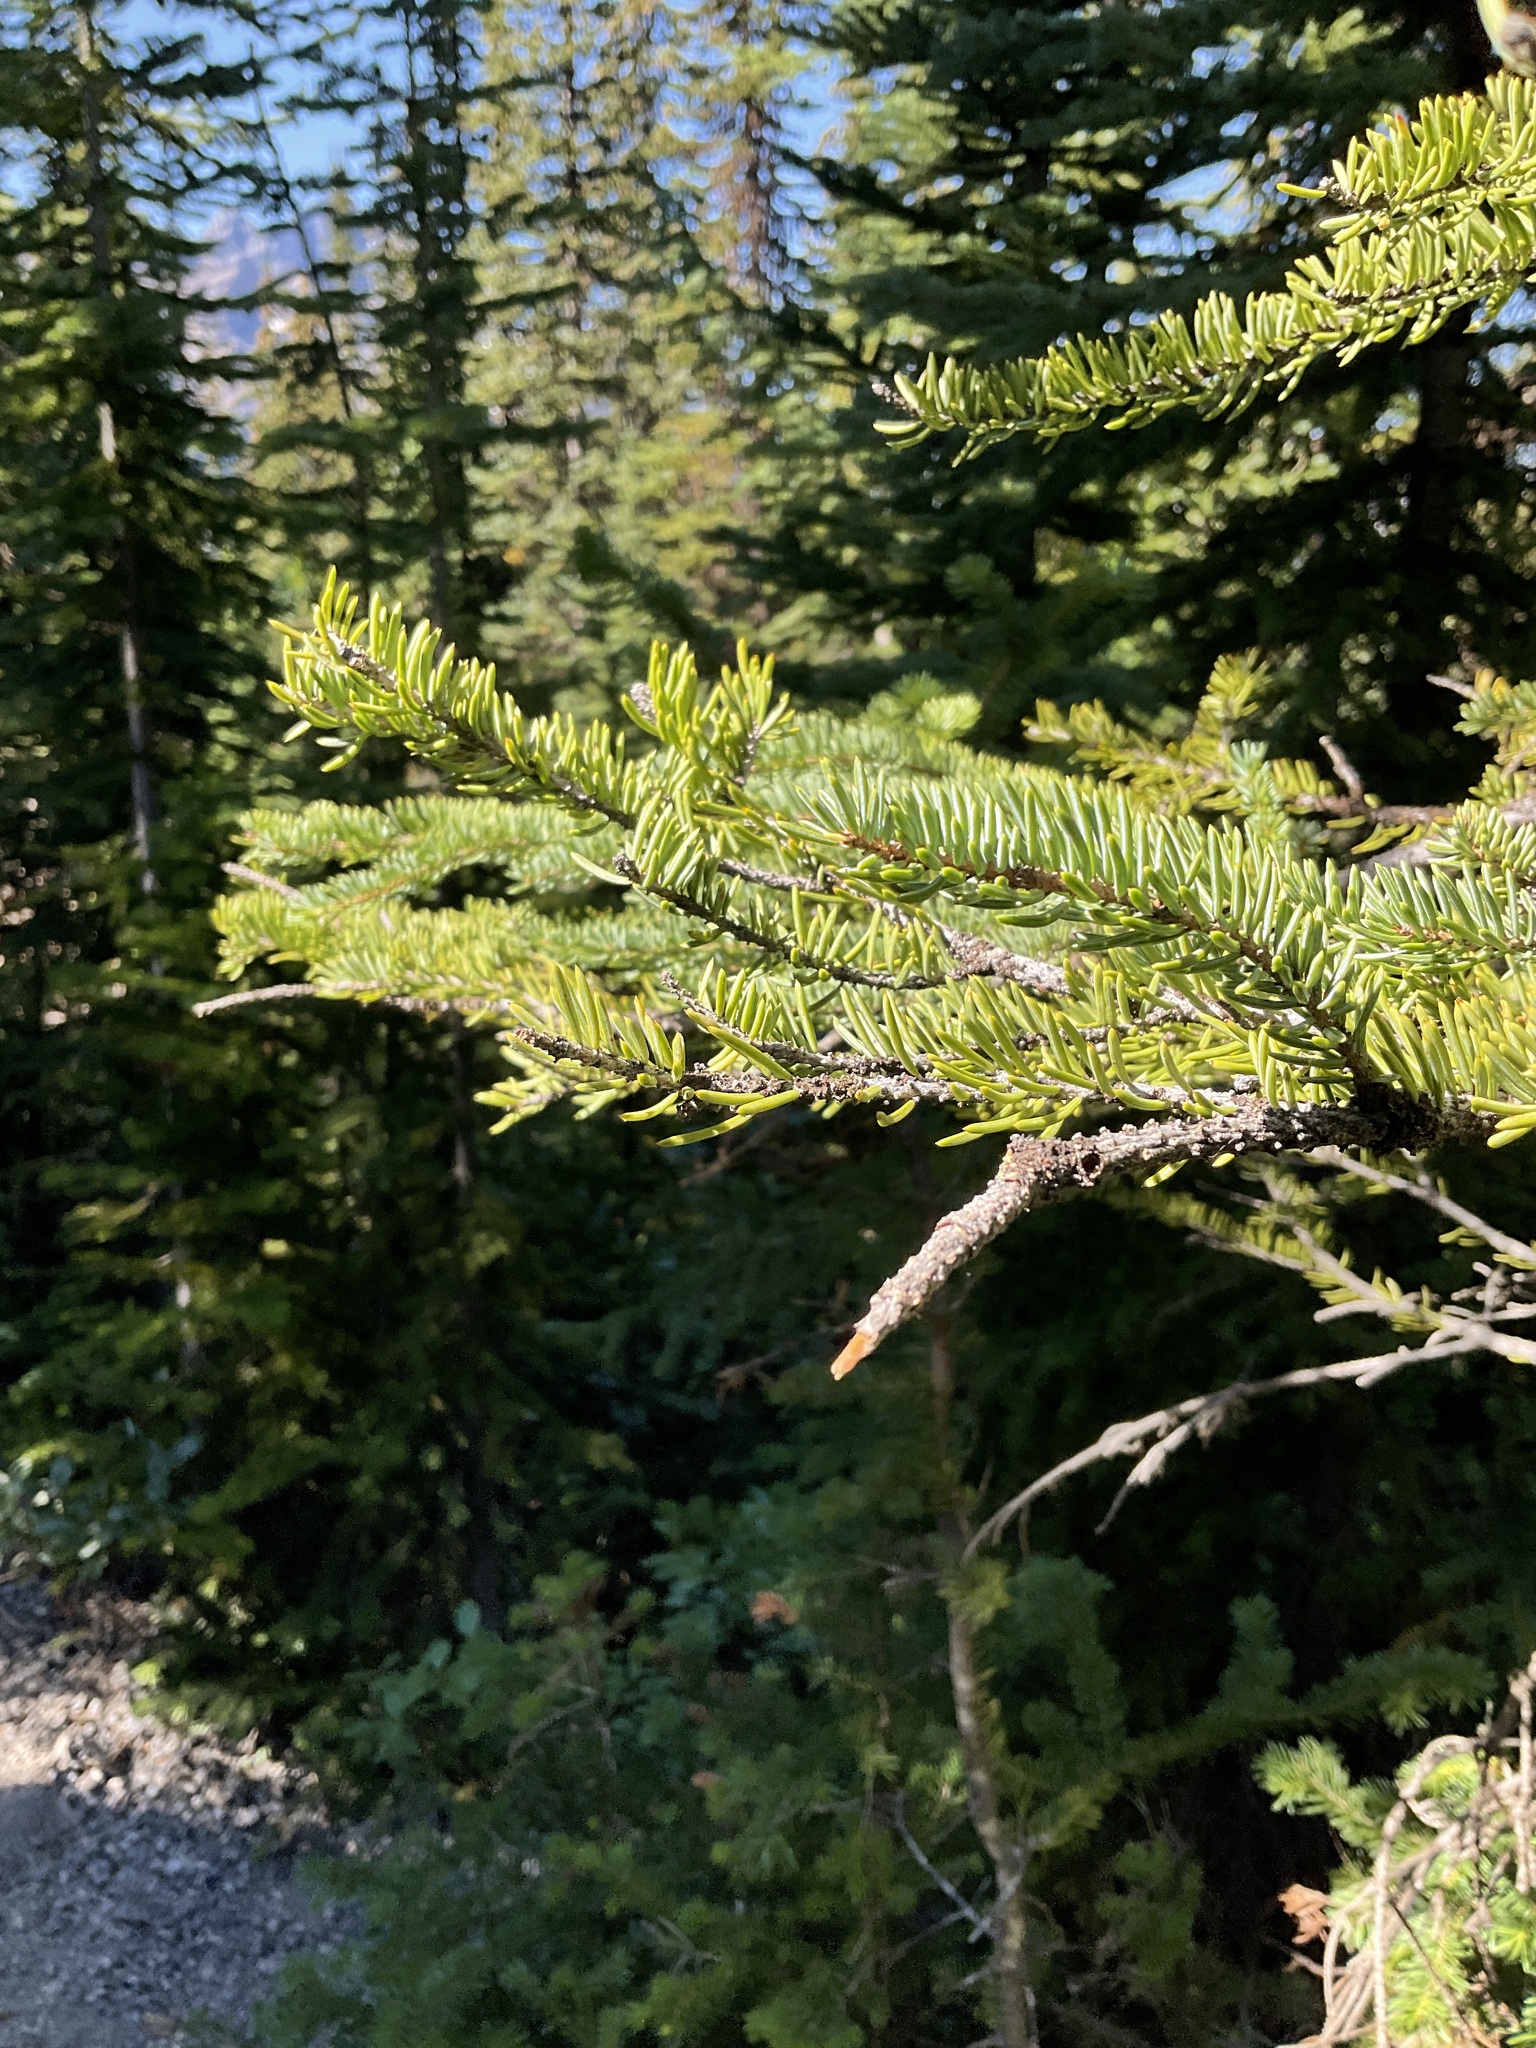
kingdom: Plantae
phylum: Tracheophyta
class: Pinopsida
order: Pinales
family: Pinaceae
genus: Picea
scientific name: Picea engelmannii
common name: Engelmann spruce
